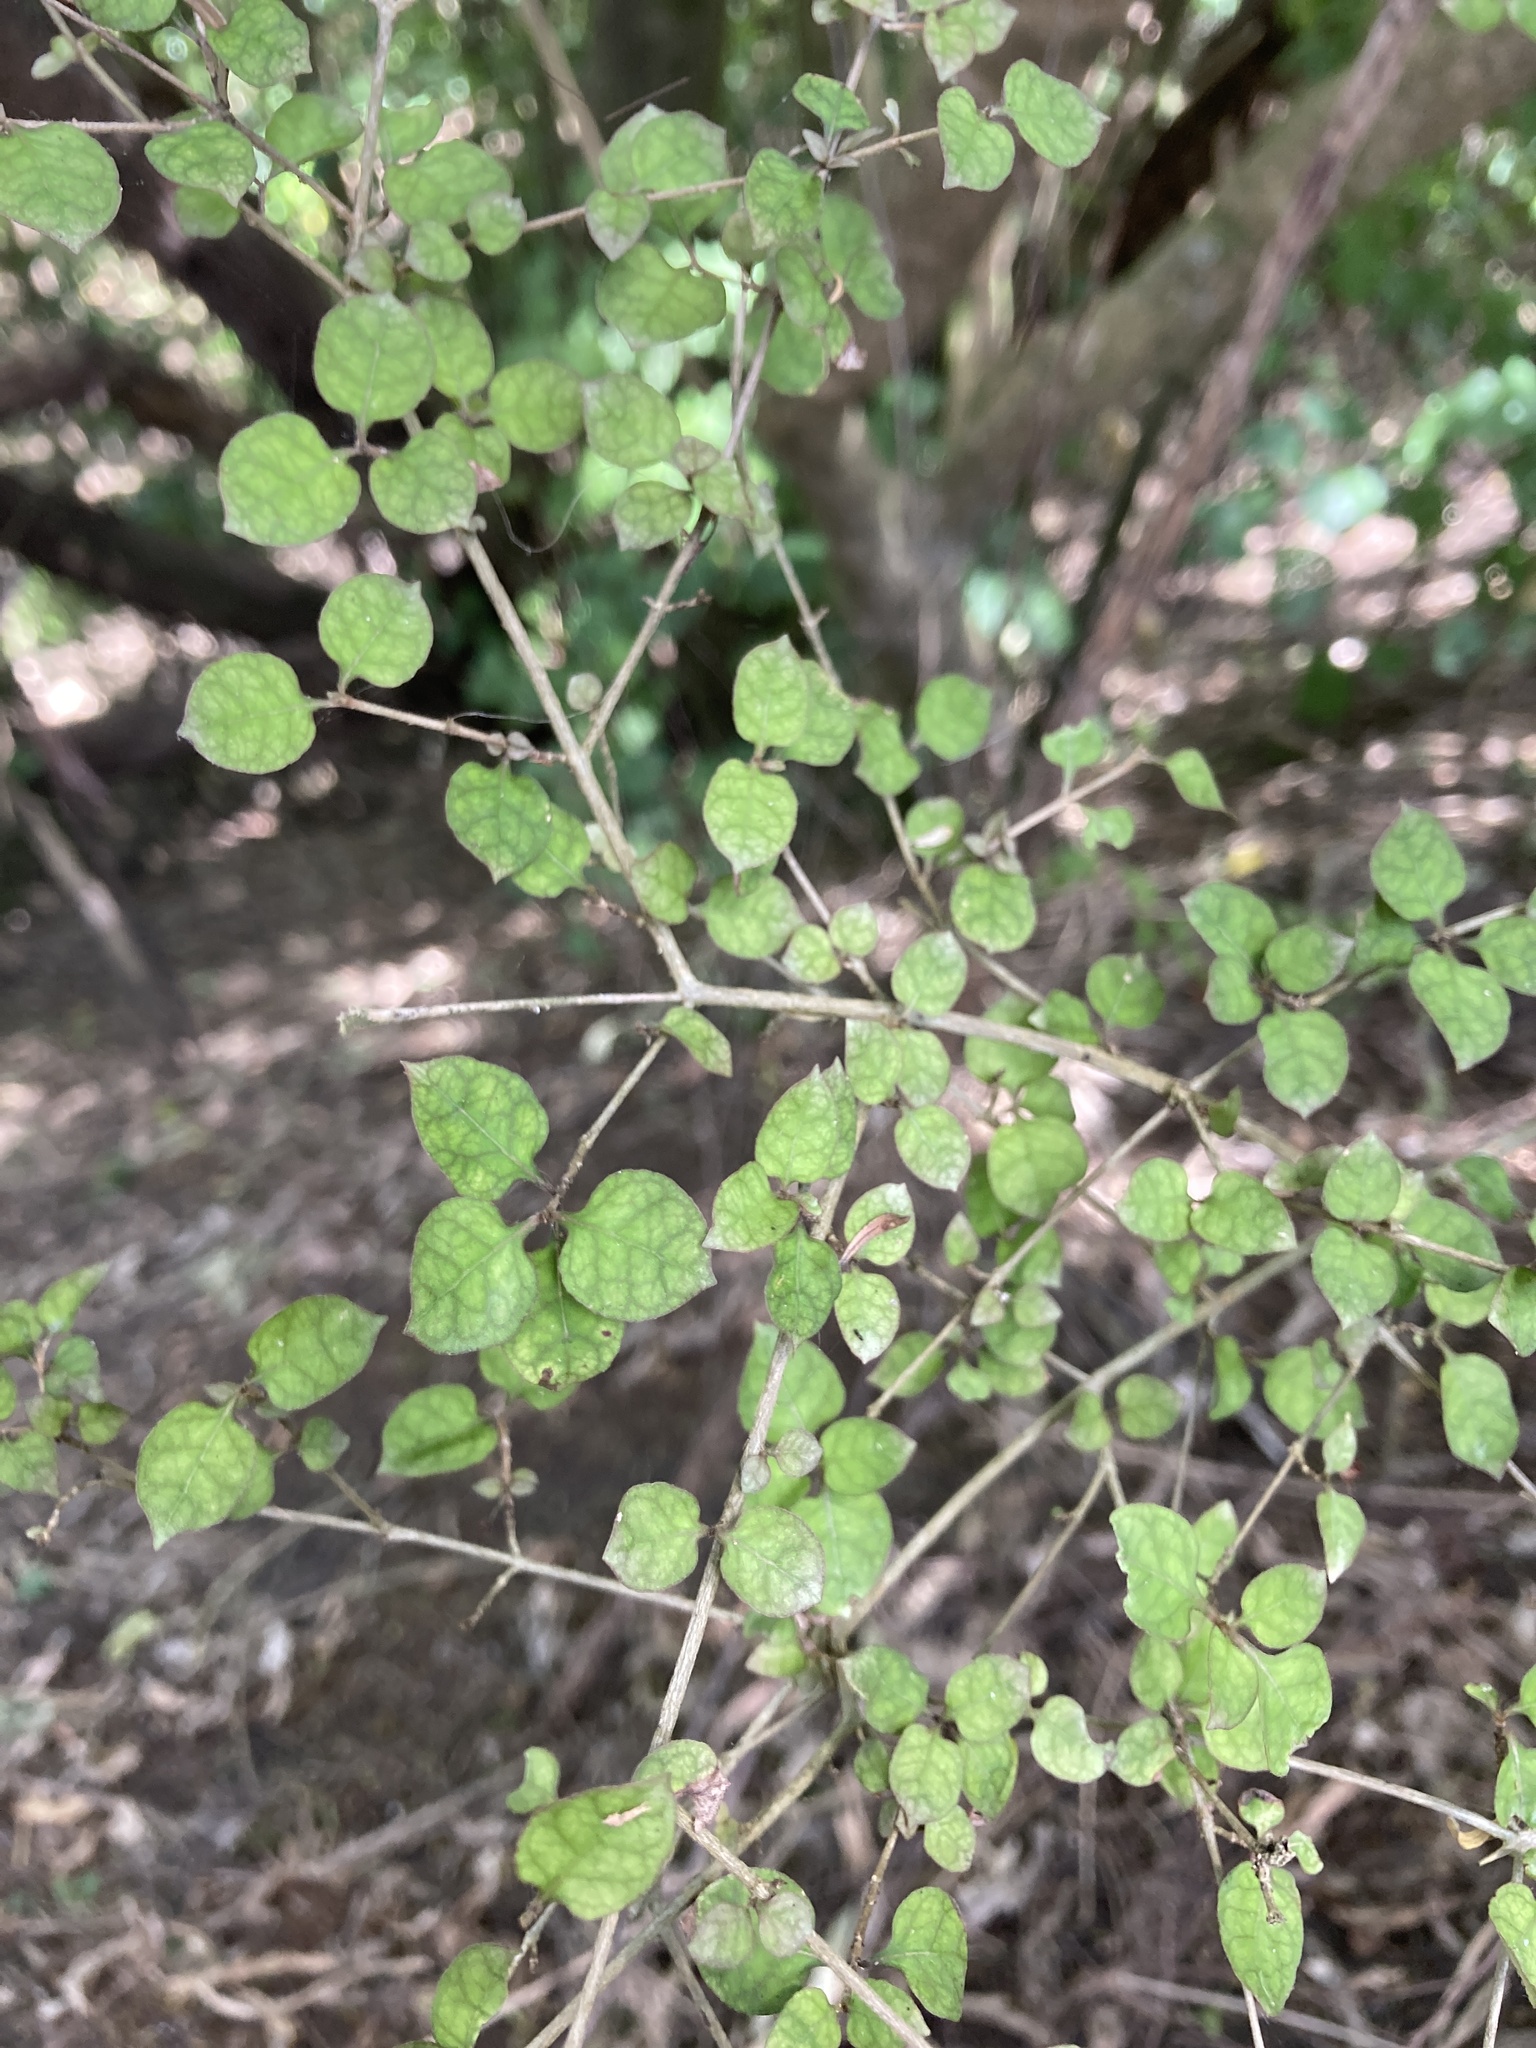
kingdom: Plantae
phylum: Tracheophyta
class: Magnoliopsida
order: Gentianales
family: Rubiaceae
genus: Coprosma
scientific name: Coprosma areolata
